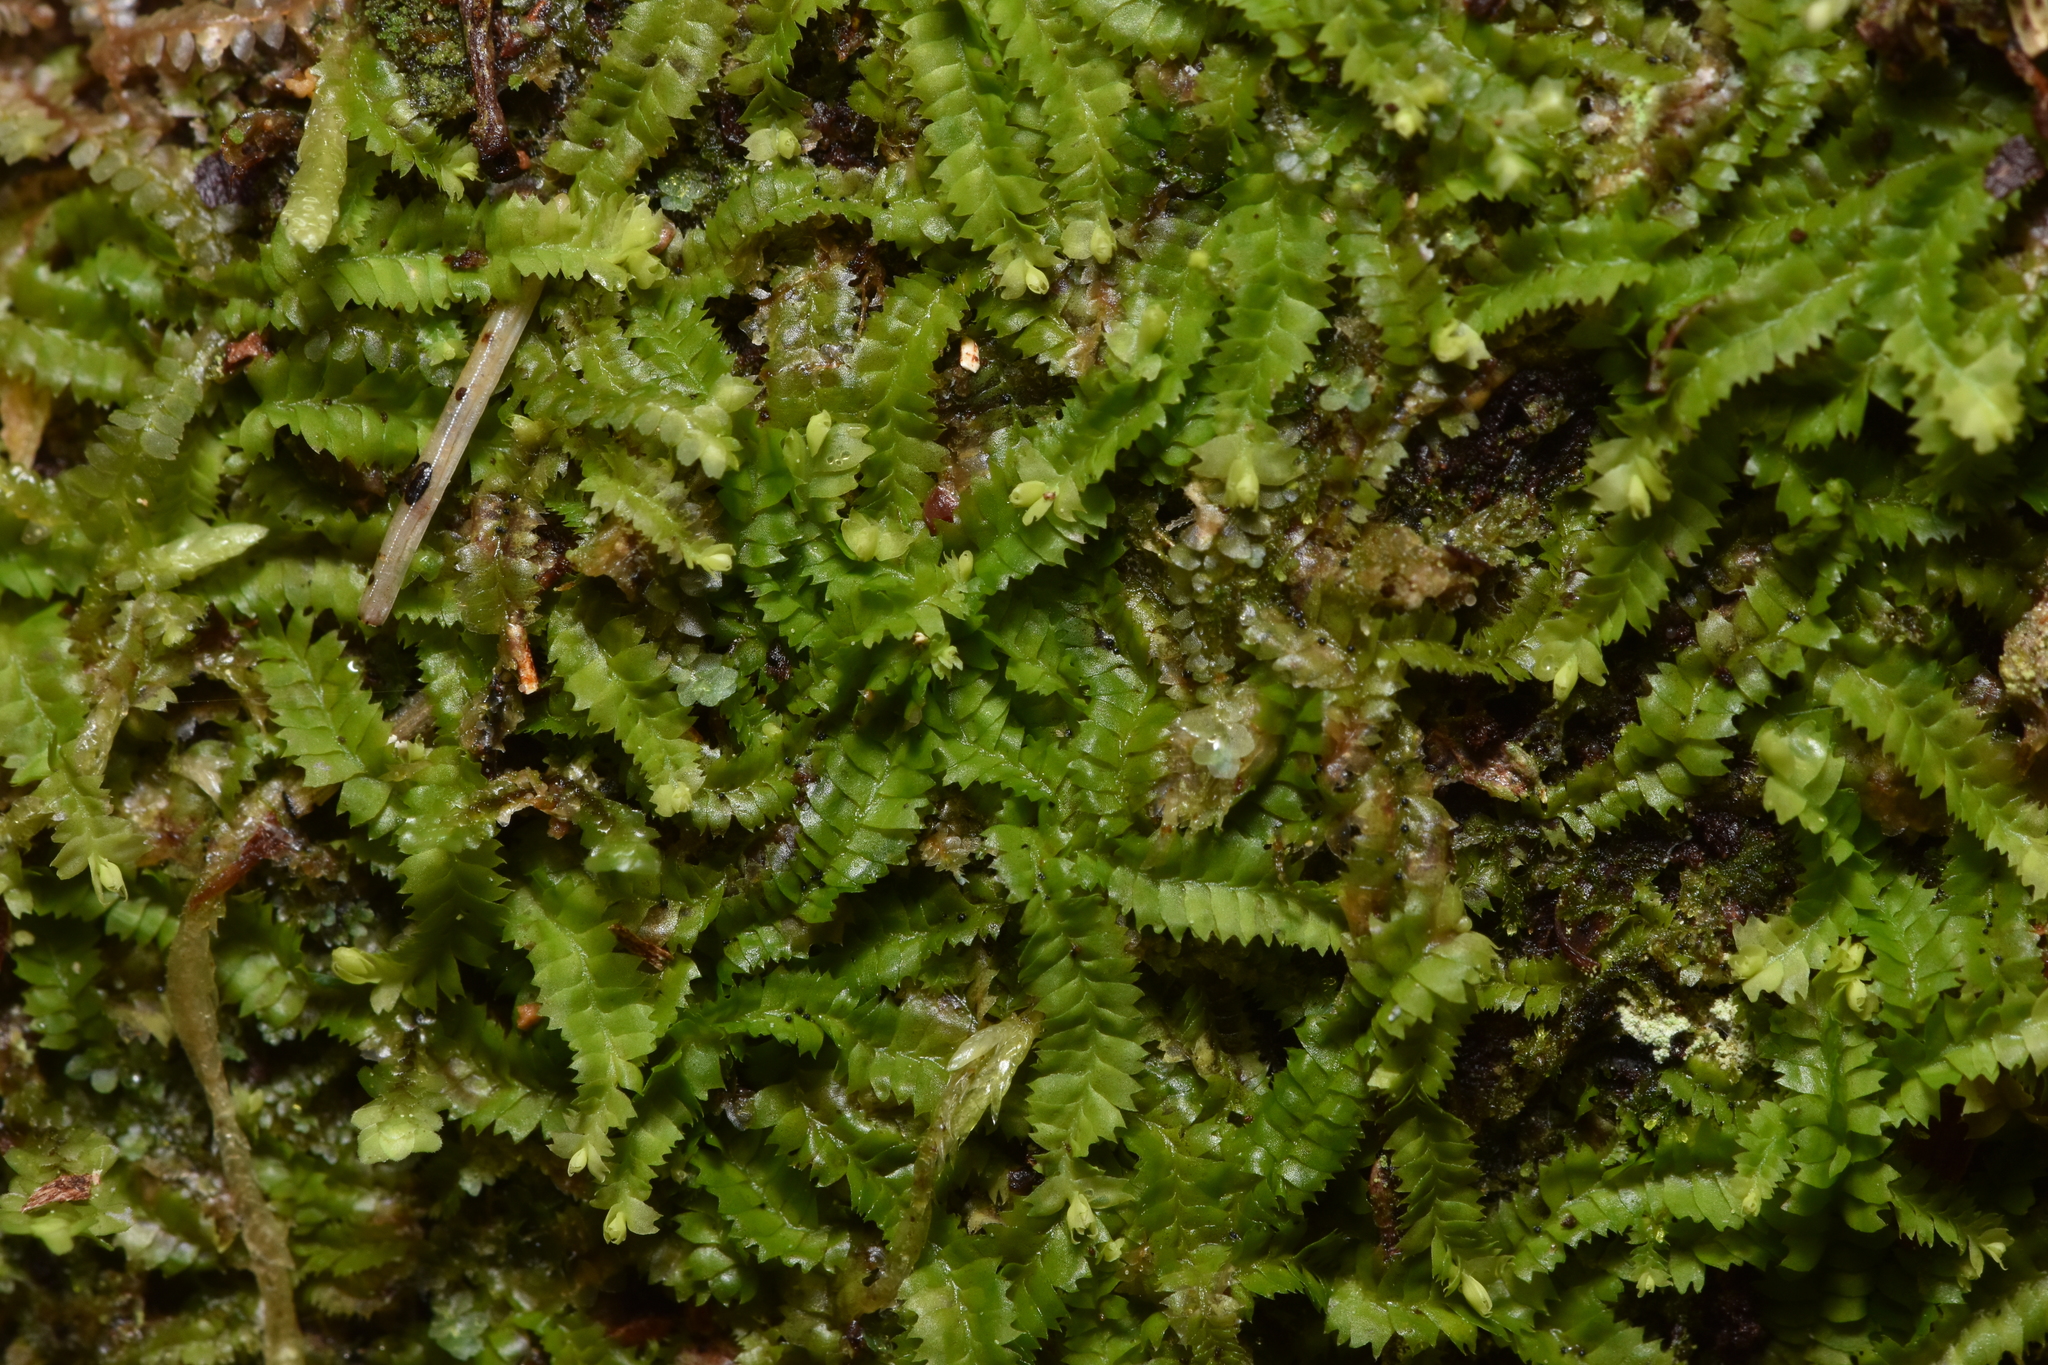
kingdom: Plantae
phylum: Marchantiophyta
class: Jungermanniopsida
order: Jungermanniales
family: Geocalycaceae
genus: Geocalyx
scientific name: Geocalyx graveolens
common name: Turps pouchwort
